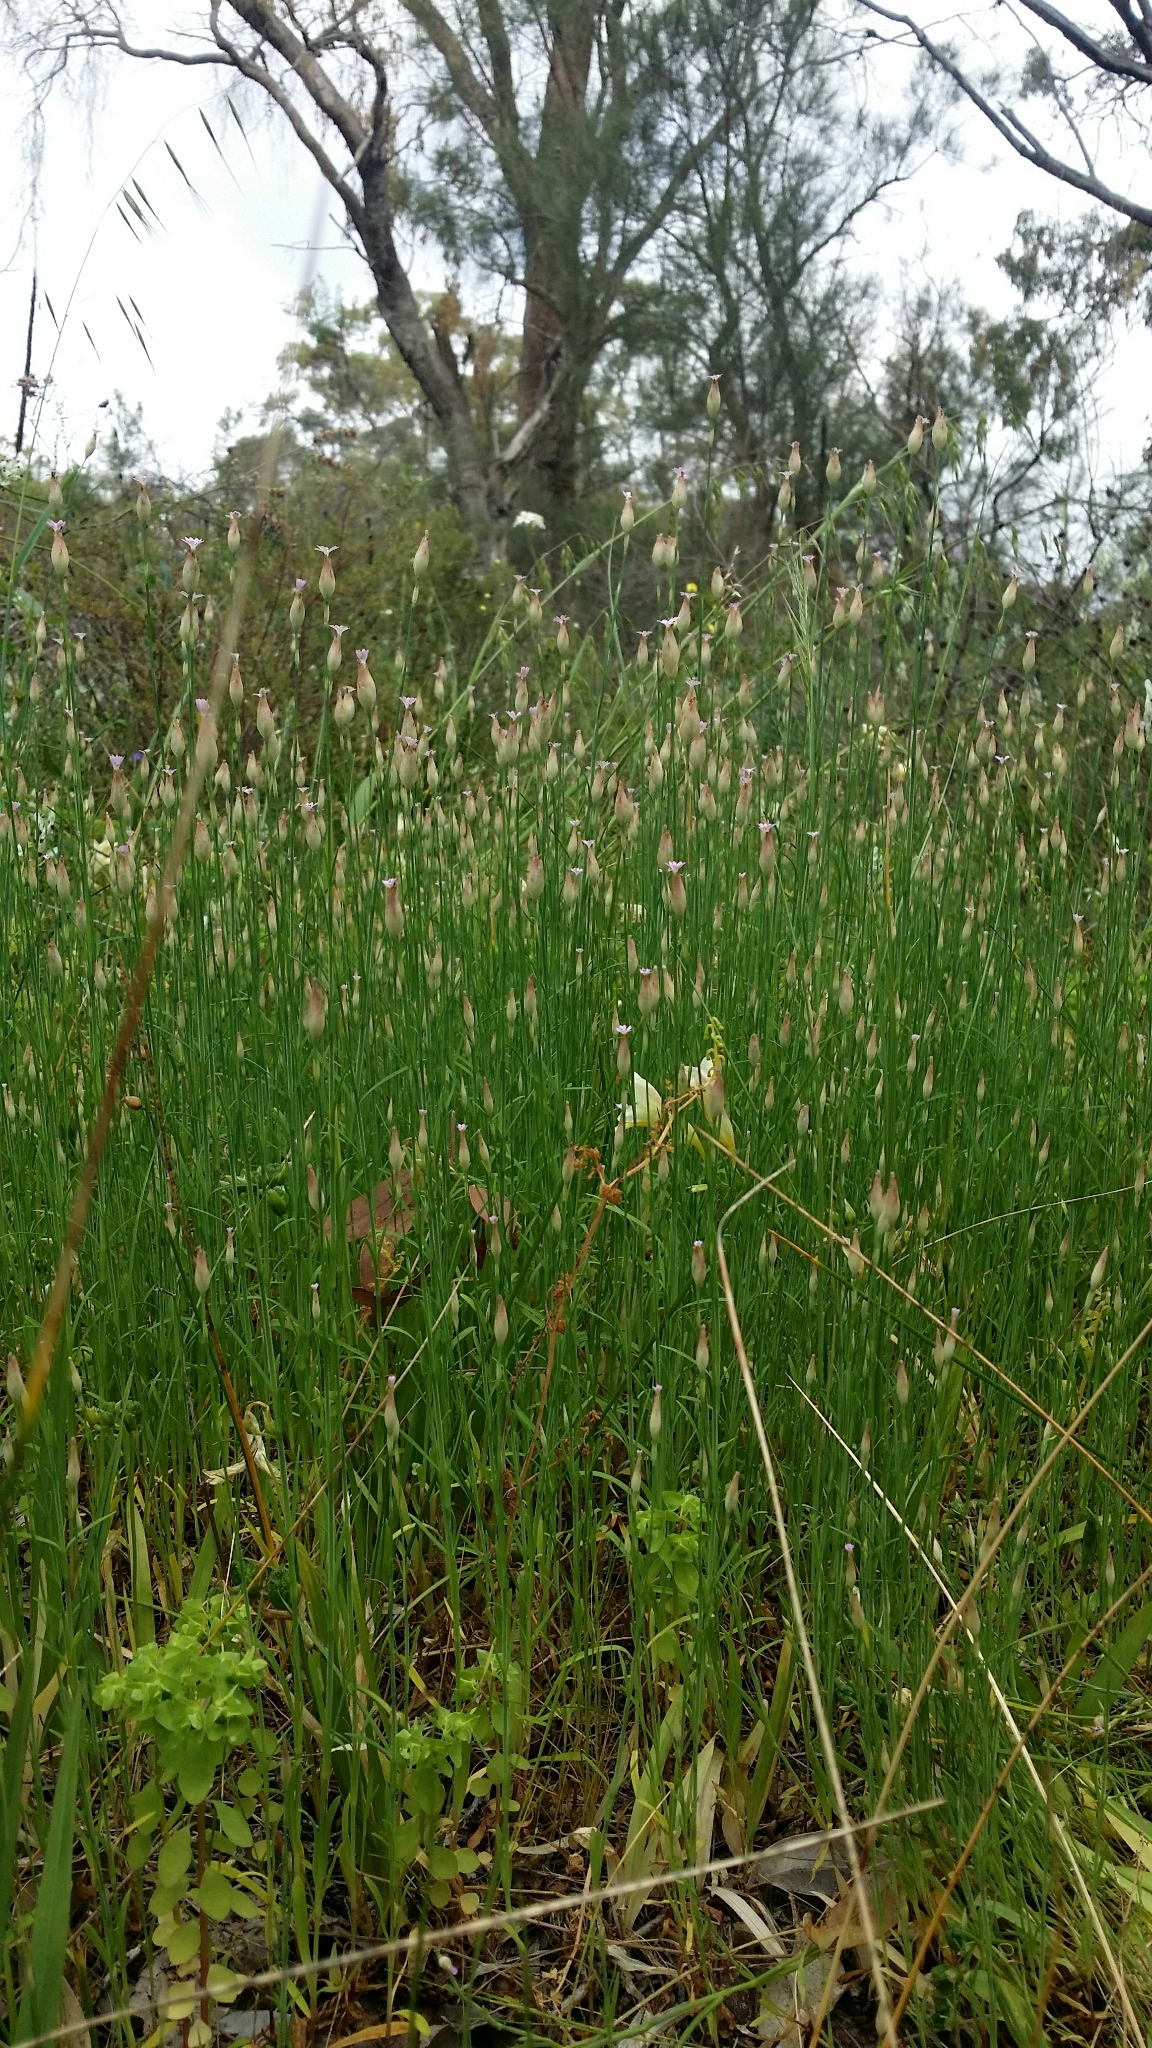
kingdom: Plantae
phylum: Tracheophyta
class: Magnoliopsida
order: Caryophyllales
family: Caryophyllaceae
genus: Petrorhagia
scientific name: Petrorhagia dubia
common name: Hairypink
